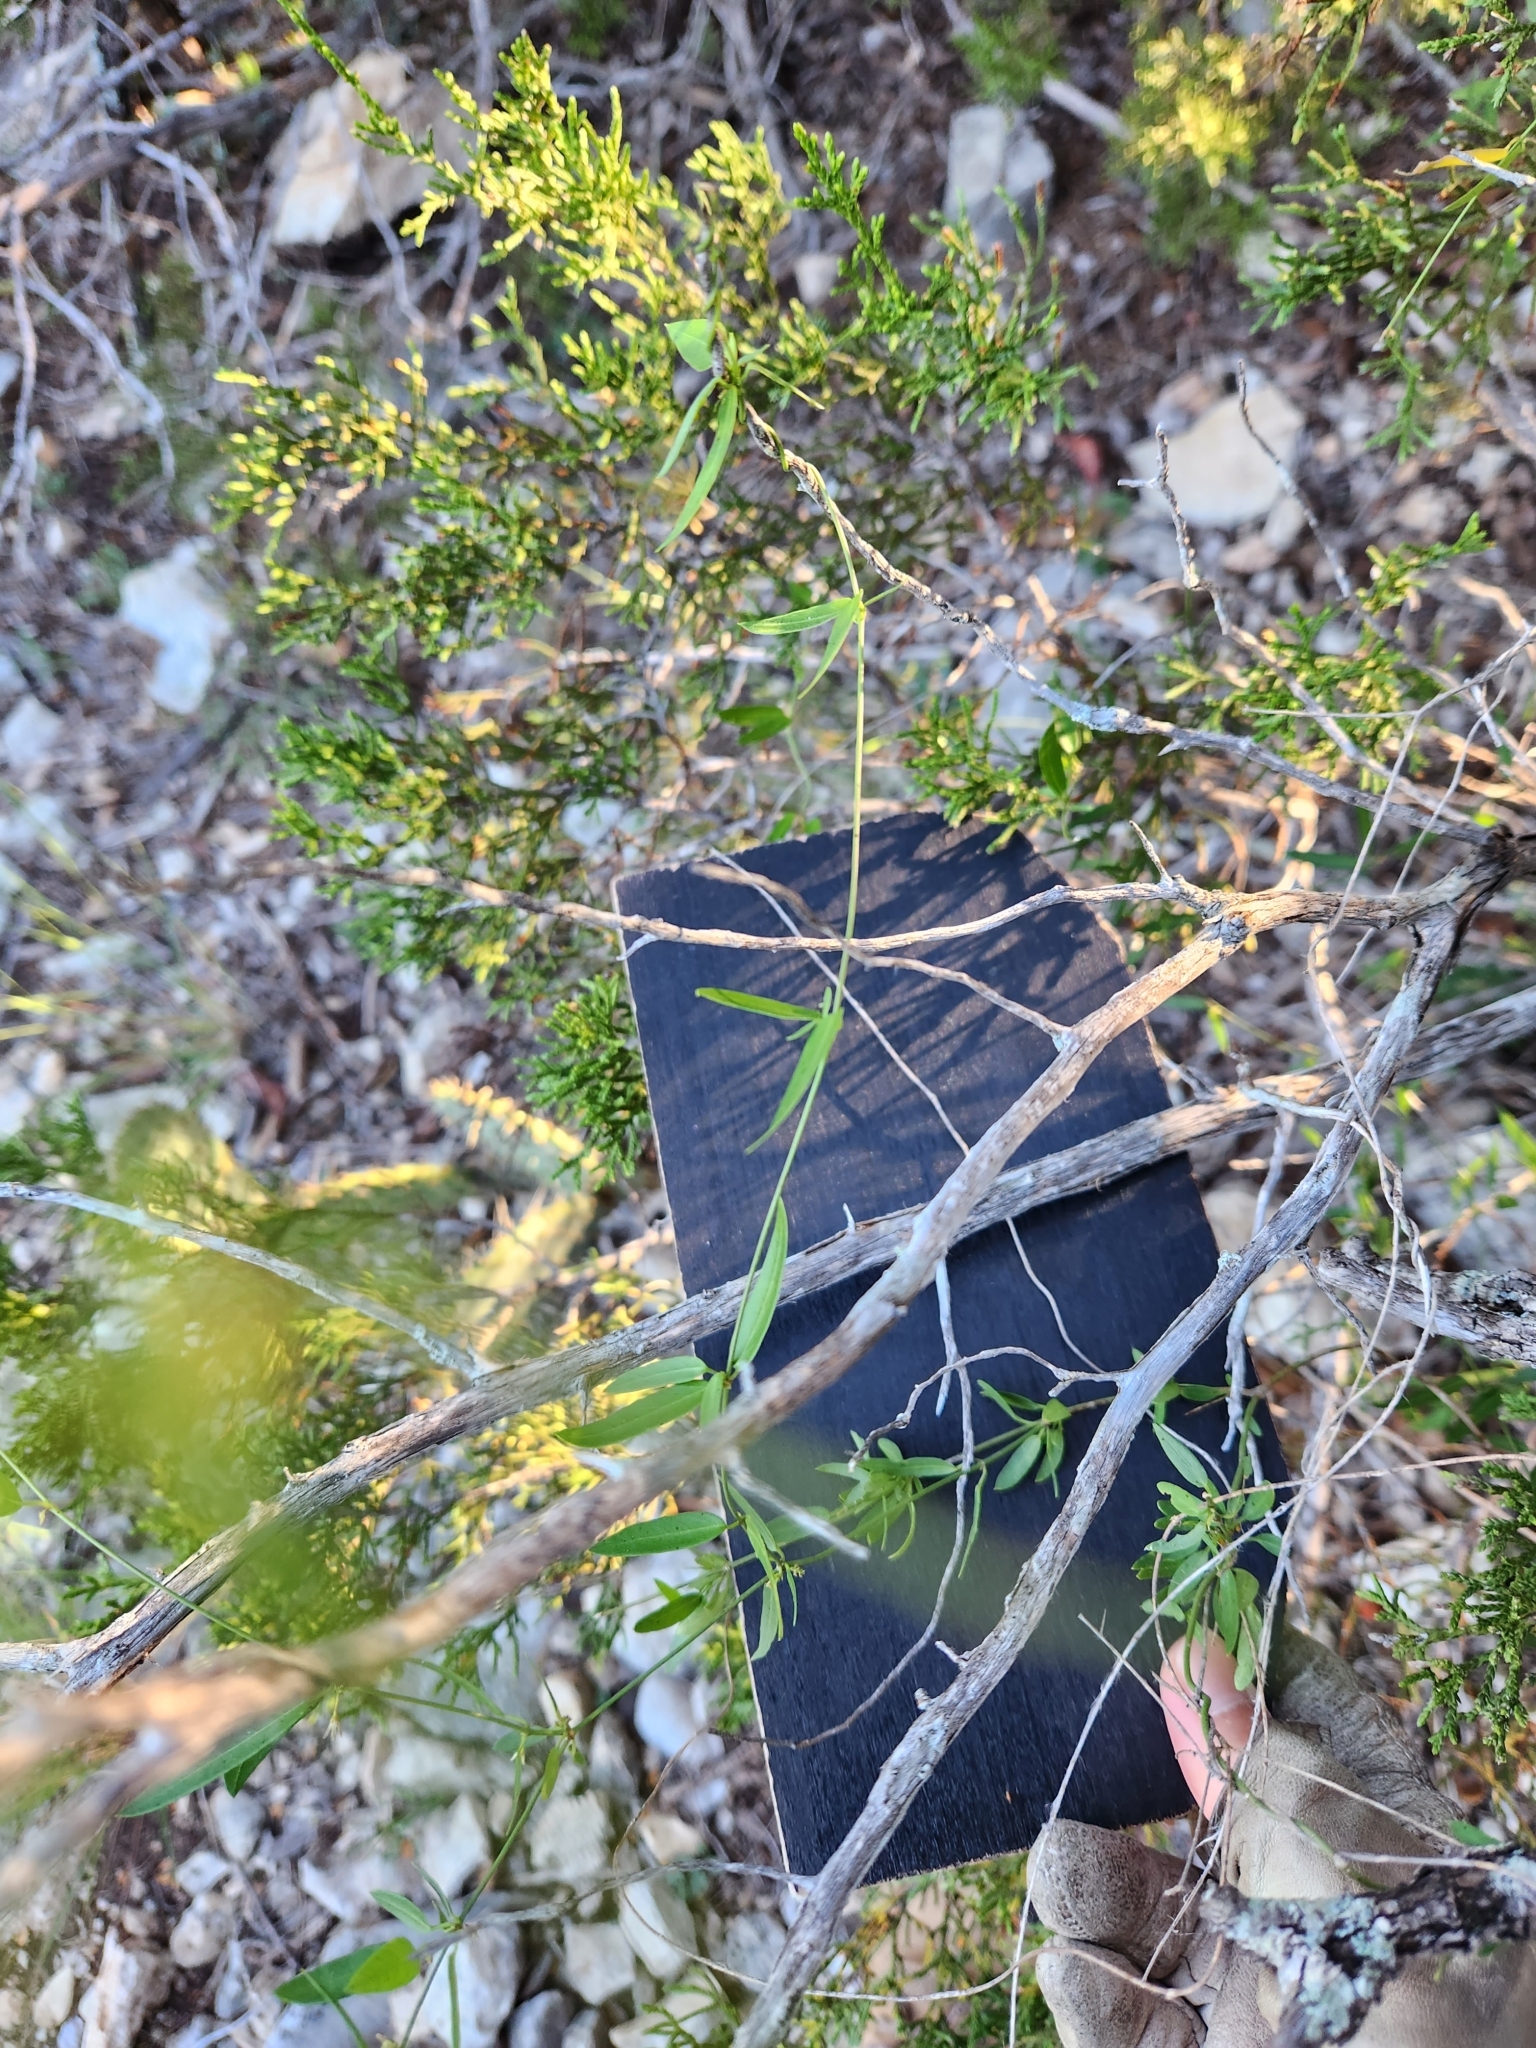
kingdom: Plantae
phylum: Tracheophyta
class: Magnoliopsida
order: Gentianales
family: Apocynaceae
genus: Metastelma
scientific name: Metastelma palmeri
